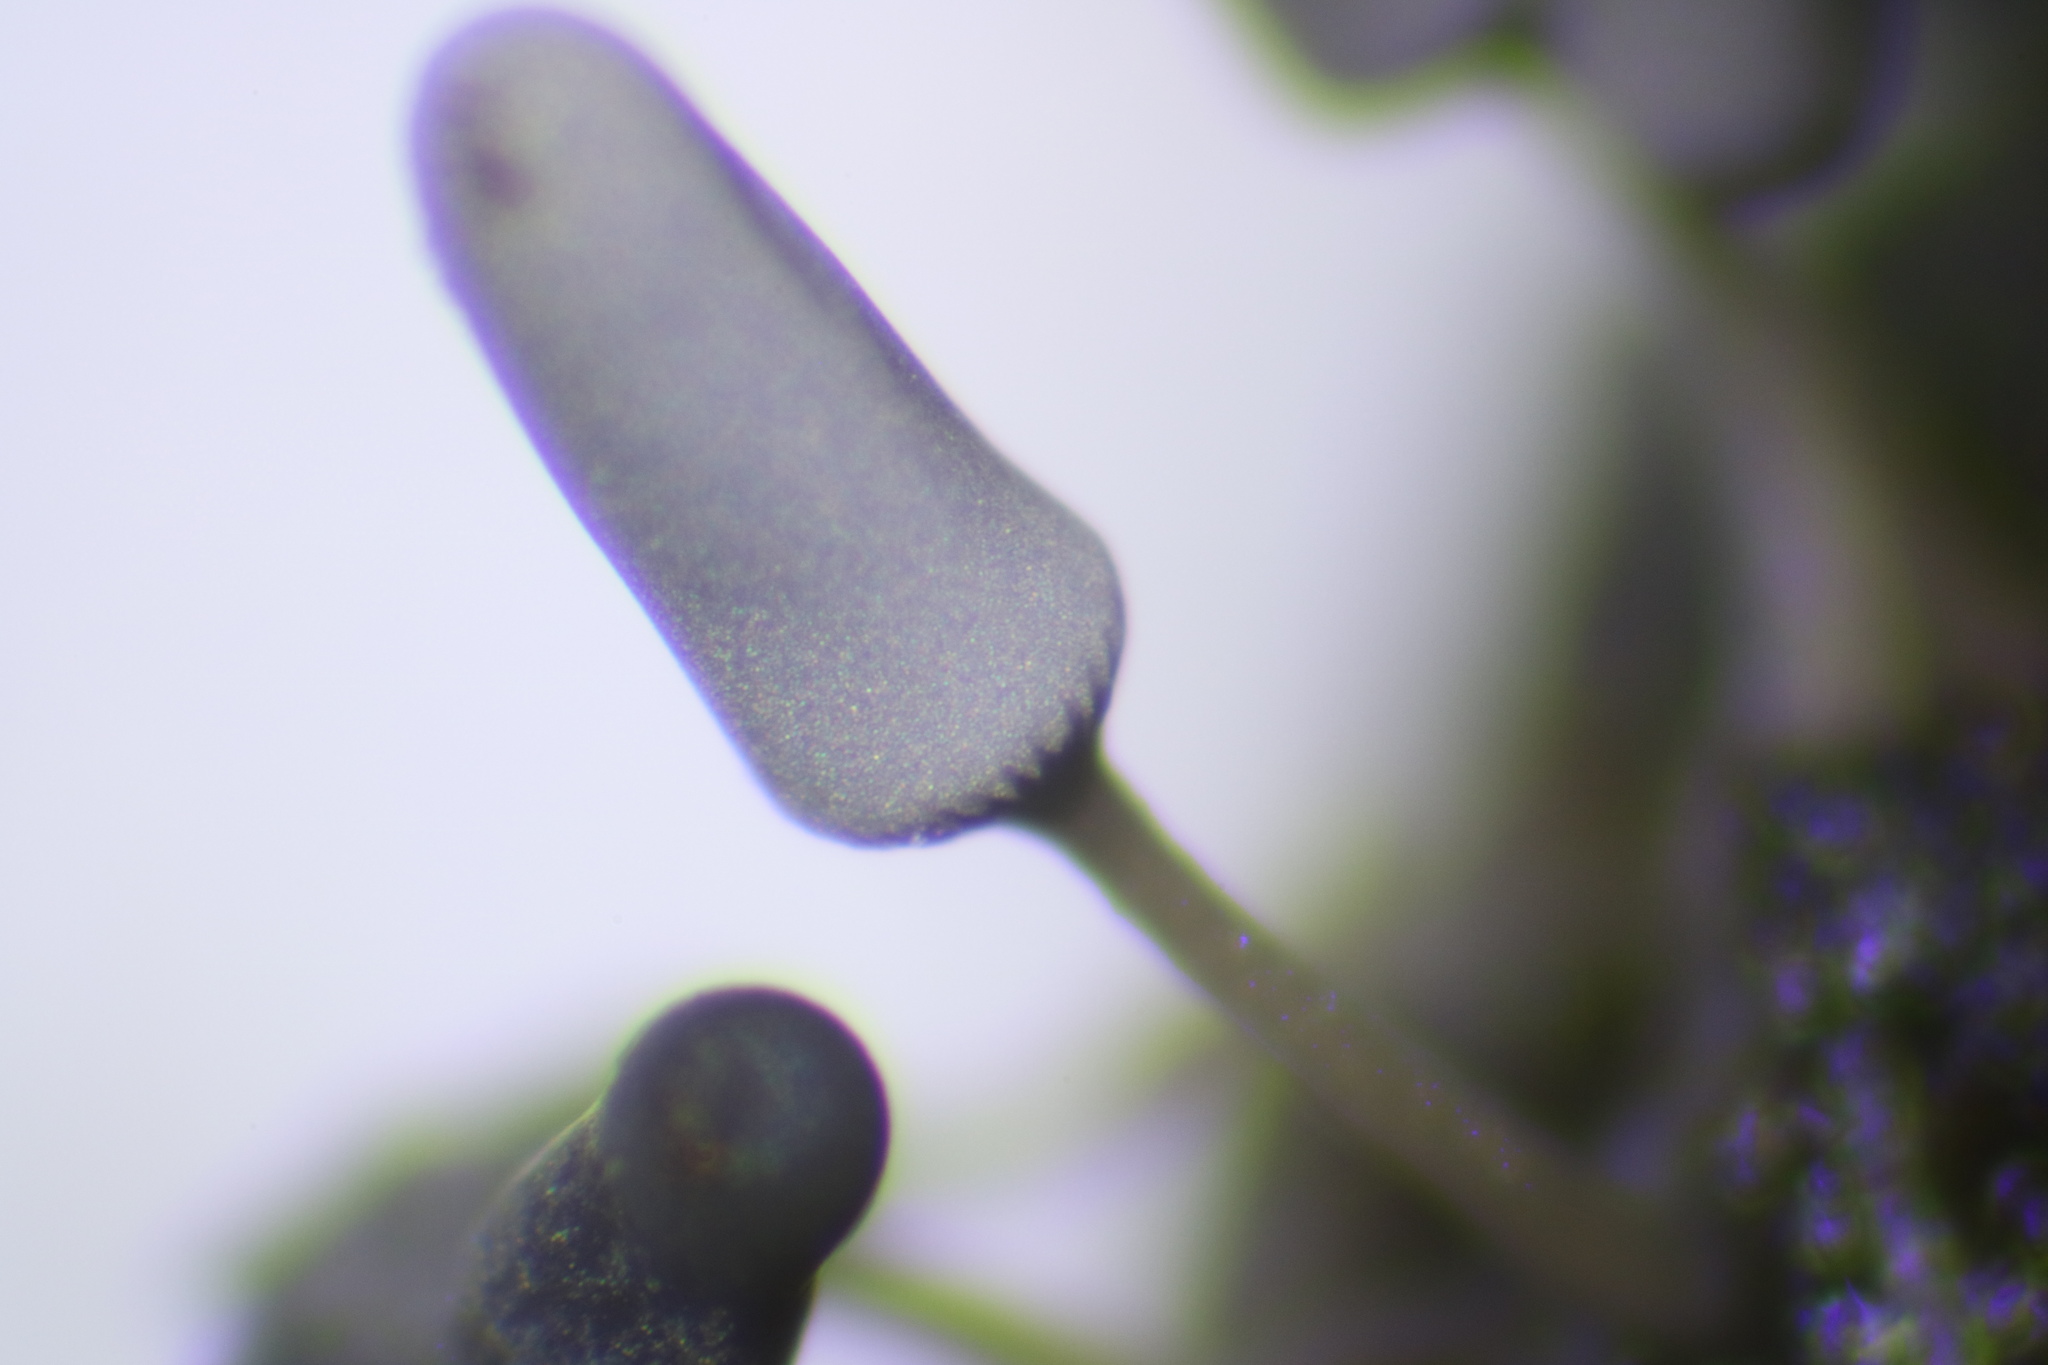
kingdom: Protozoa
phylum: Mycetozoa
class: Myxomycetes
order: Trichiales
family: Arcyriaceae
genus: Arcyria
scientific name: Arcyria cinerea
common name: White carnival candy slime mold
